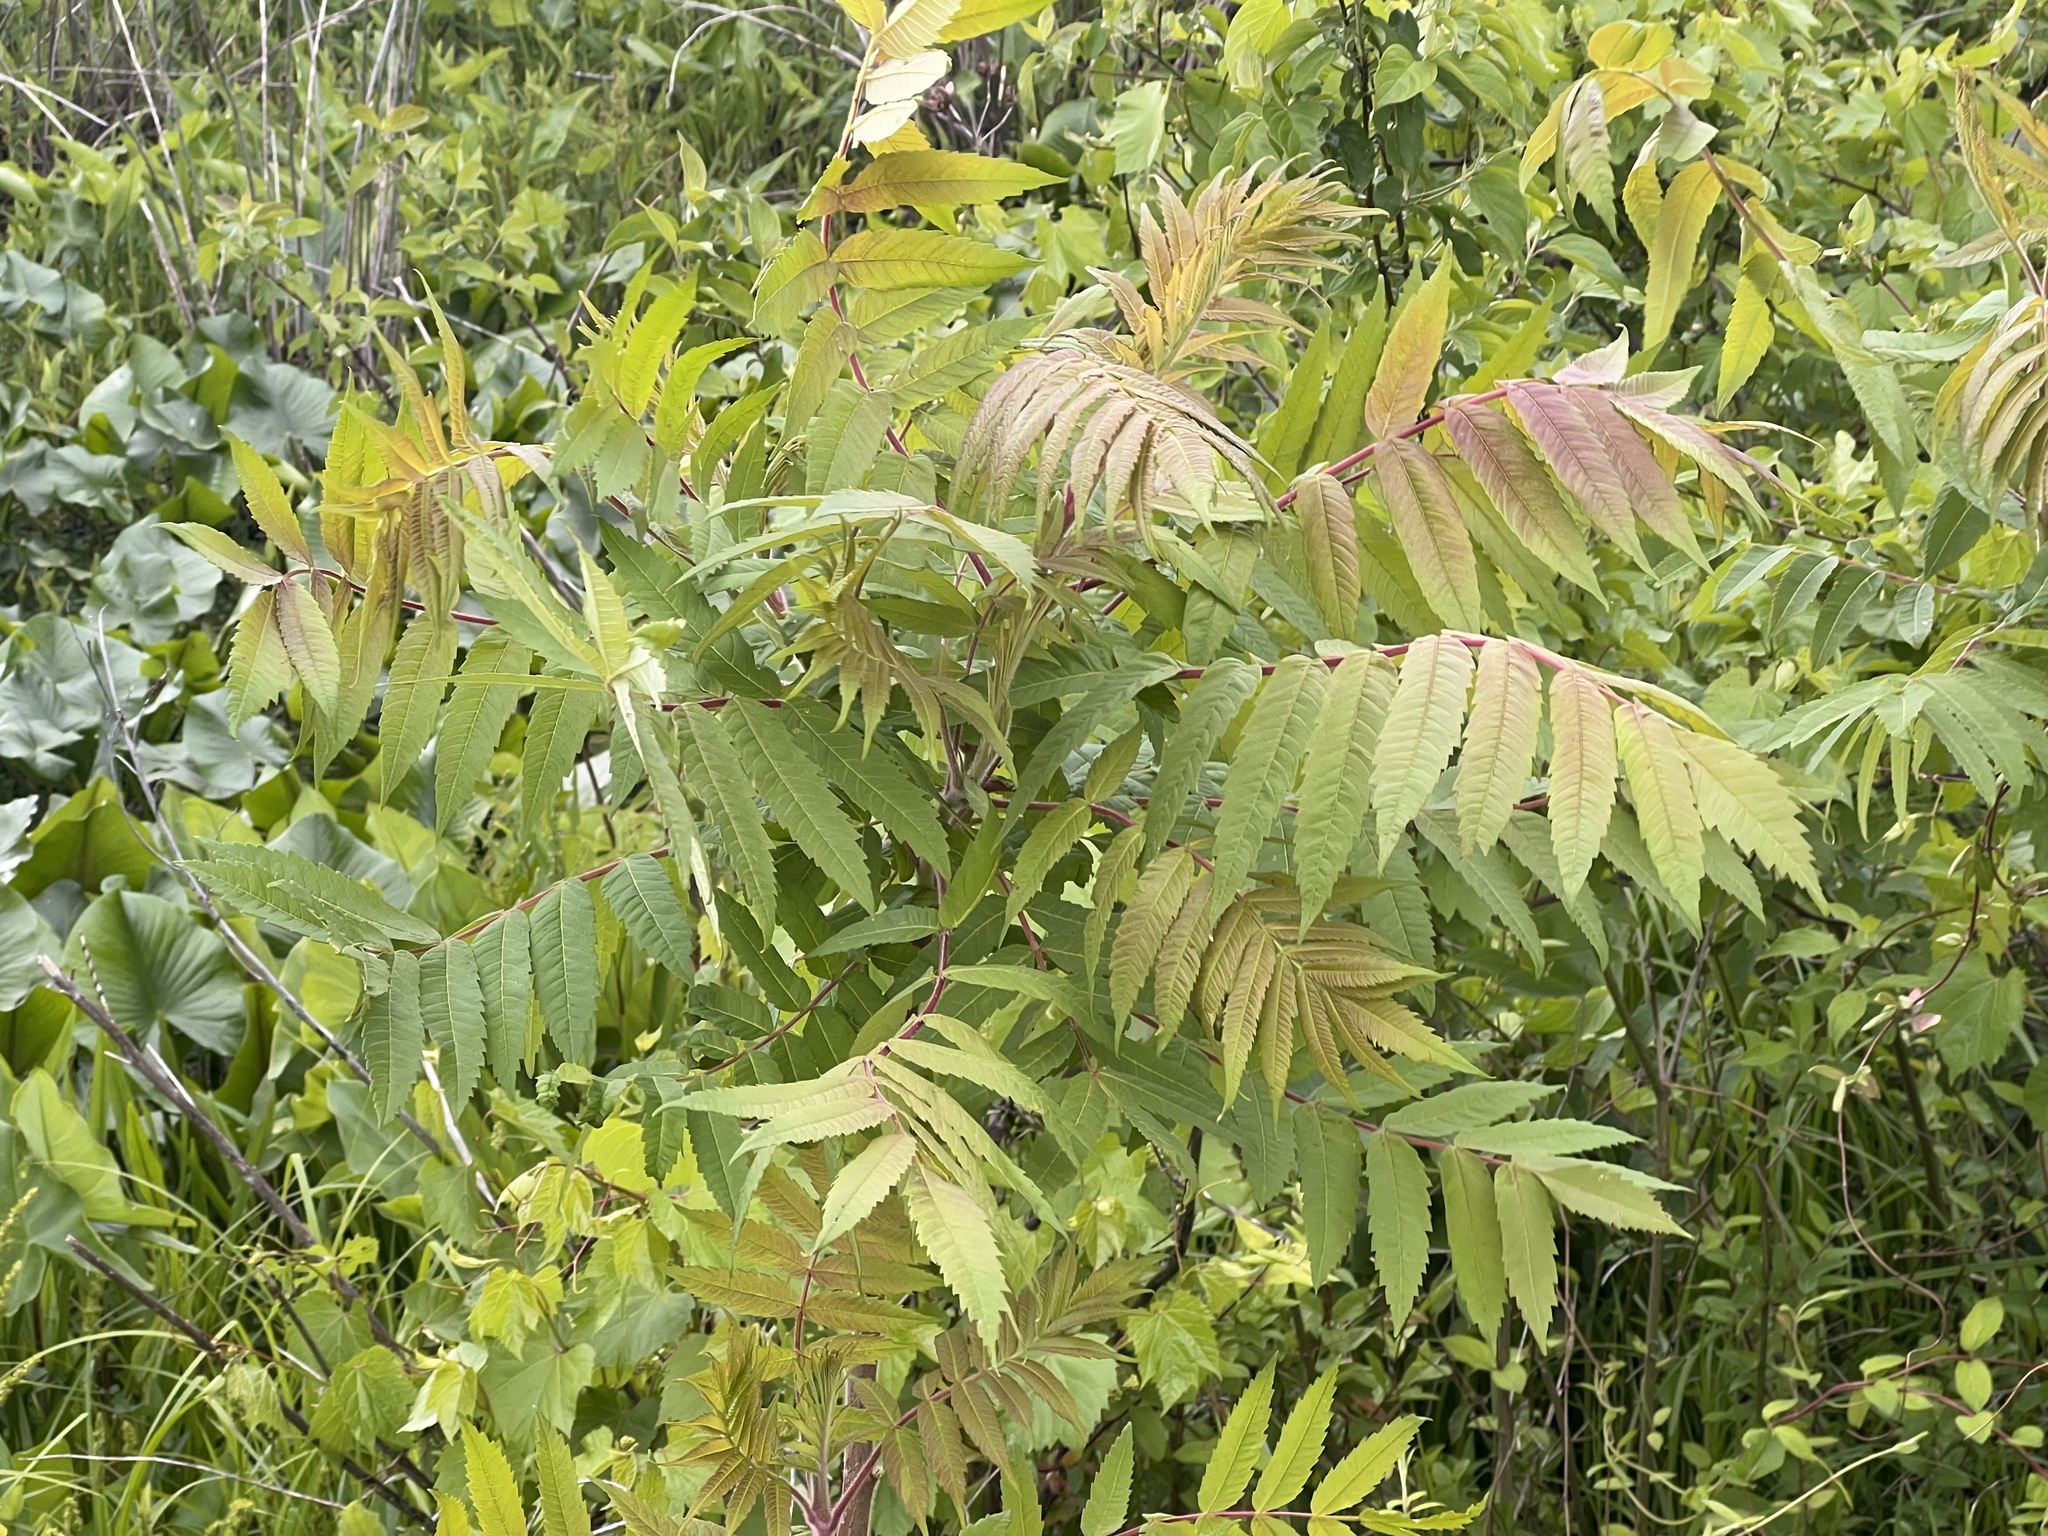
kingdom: Plantae
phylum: Tracheophyta
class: Magnoliopsida
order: Sapindales
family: Anacardiaceae
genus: Rhus
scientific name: Rhus typhina
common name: Staghorn sumac
